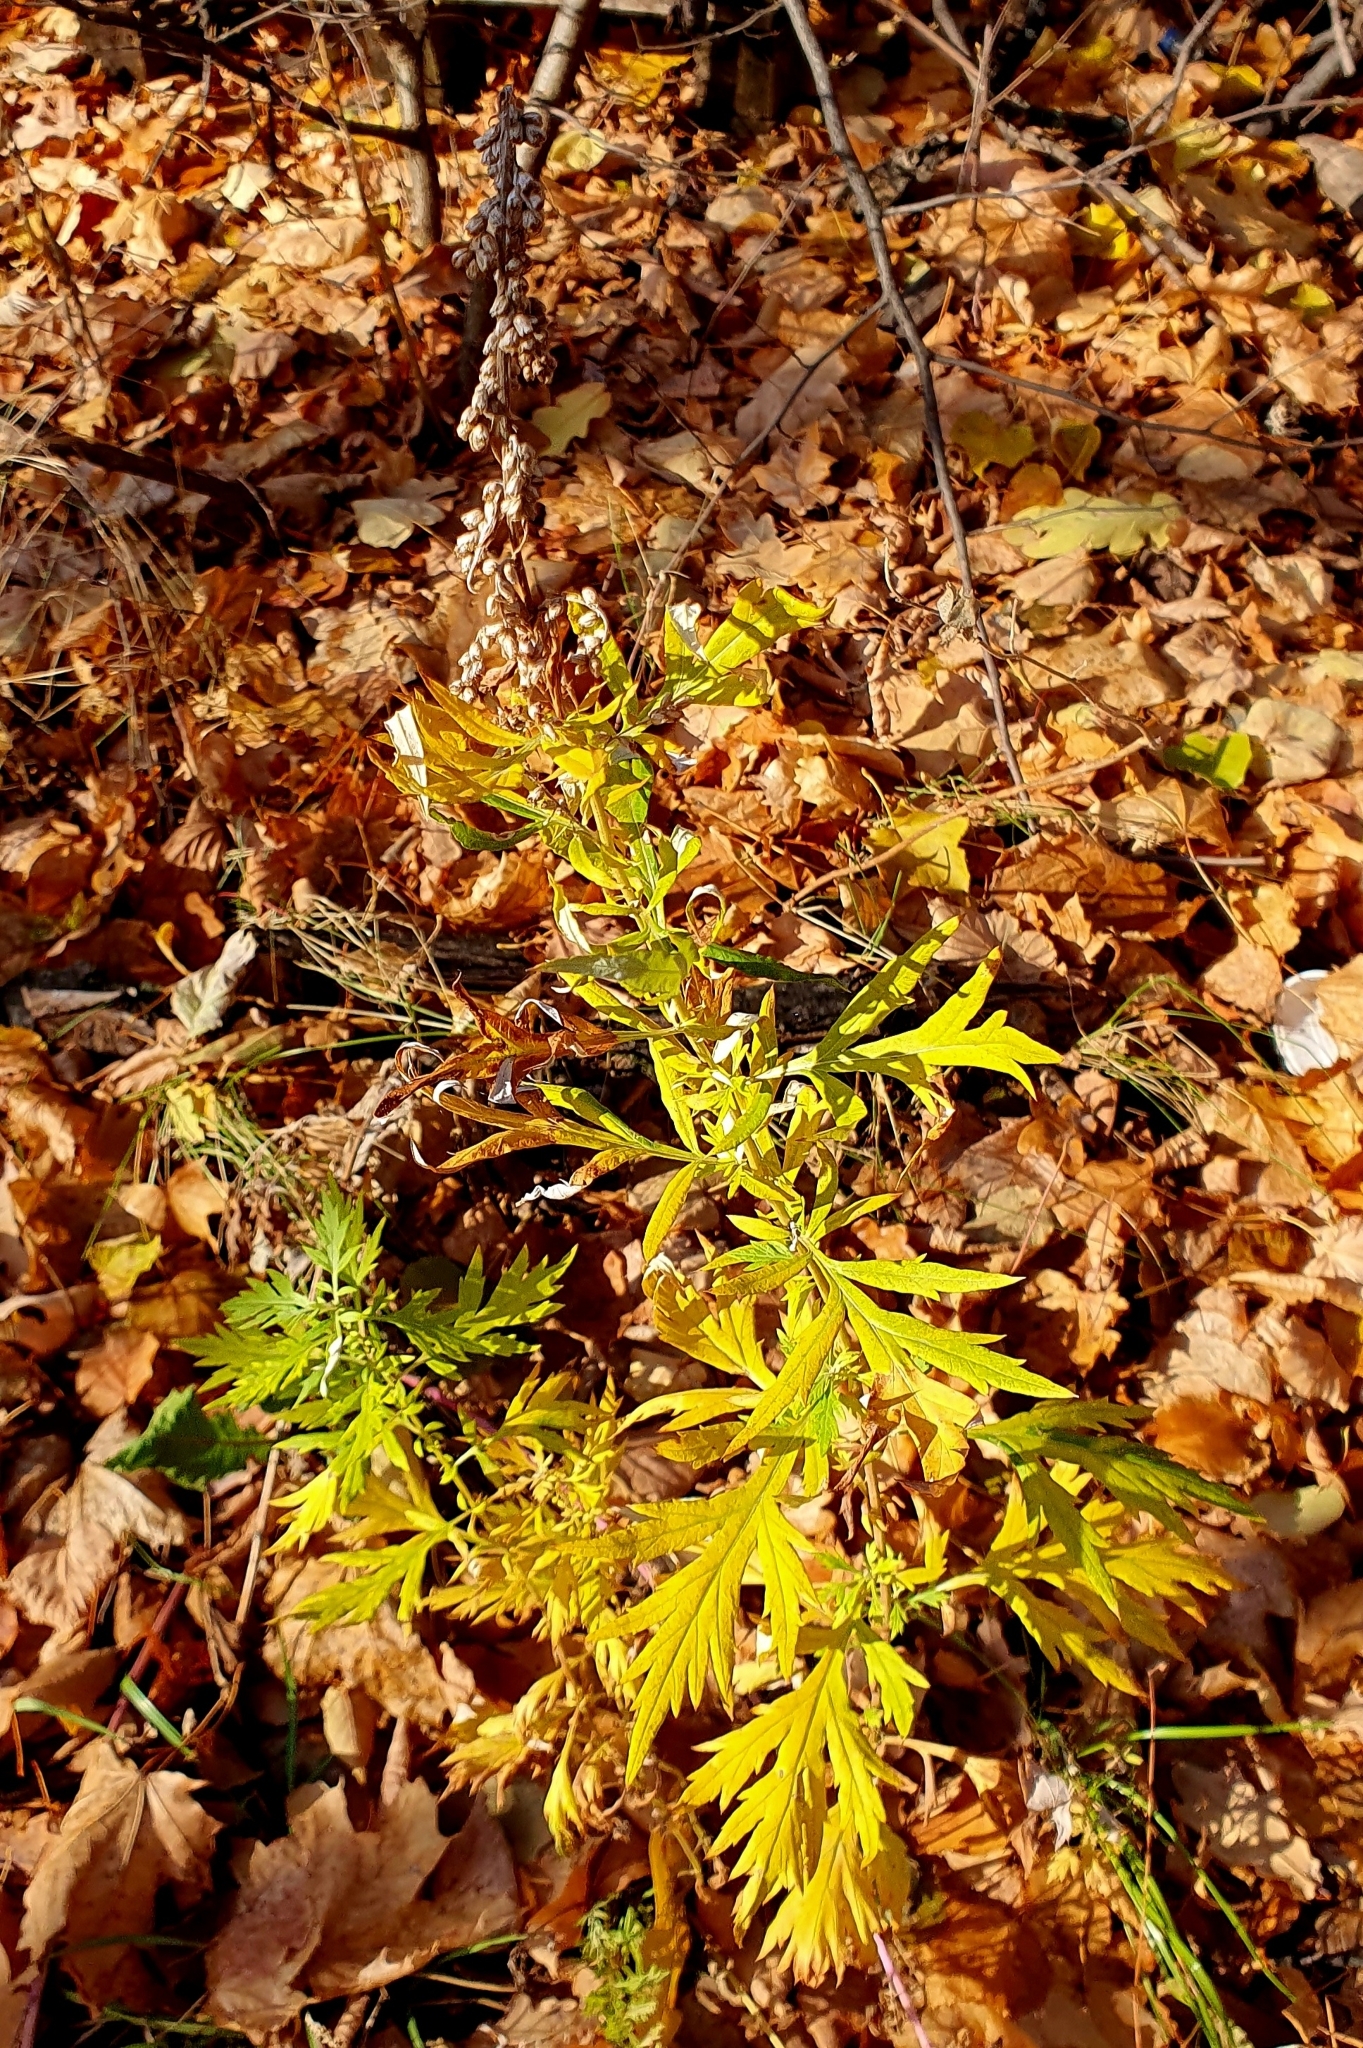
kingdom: Plantae
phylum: Tracheophyta
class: Magnoliopsida
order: Asterales
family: Asteraceae
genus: Artemisia
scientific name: Artemisia vulgaris
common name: Mugwort
